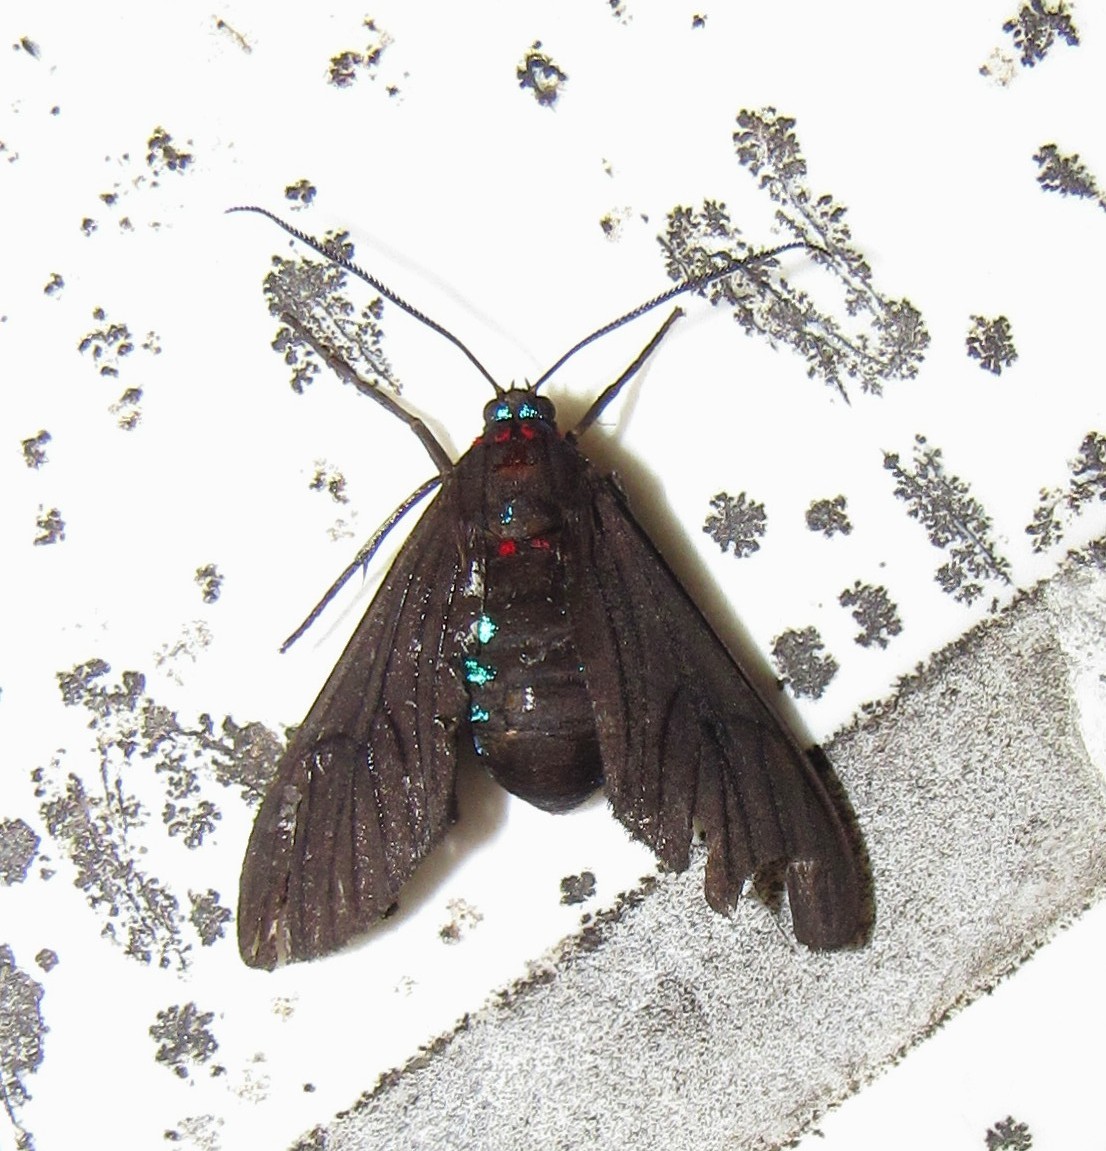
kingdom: Animalia
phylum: Arthropoda
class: Insecta
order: Lepidoptera
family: Erebidae
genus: Saurita
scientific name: Saurita cassandra
